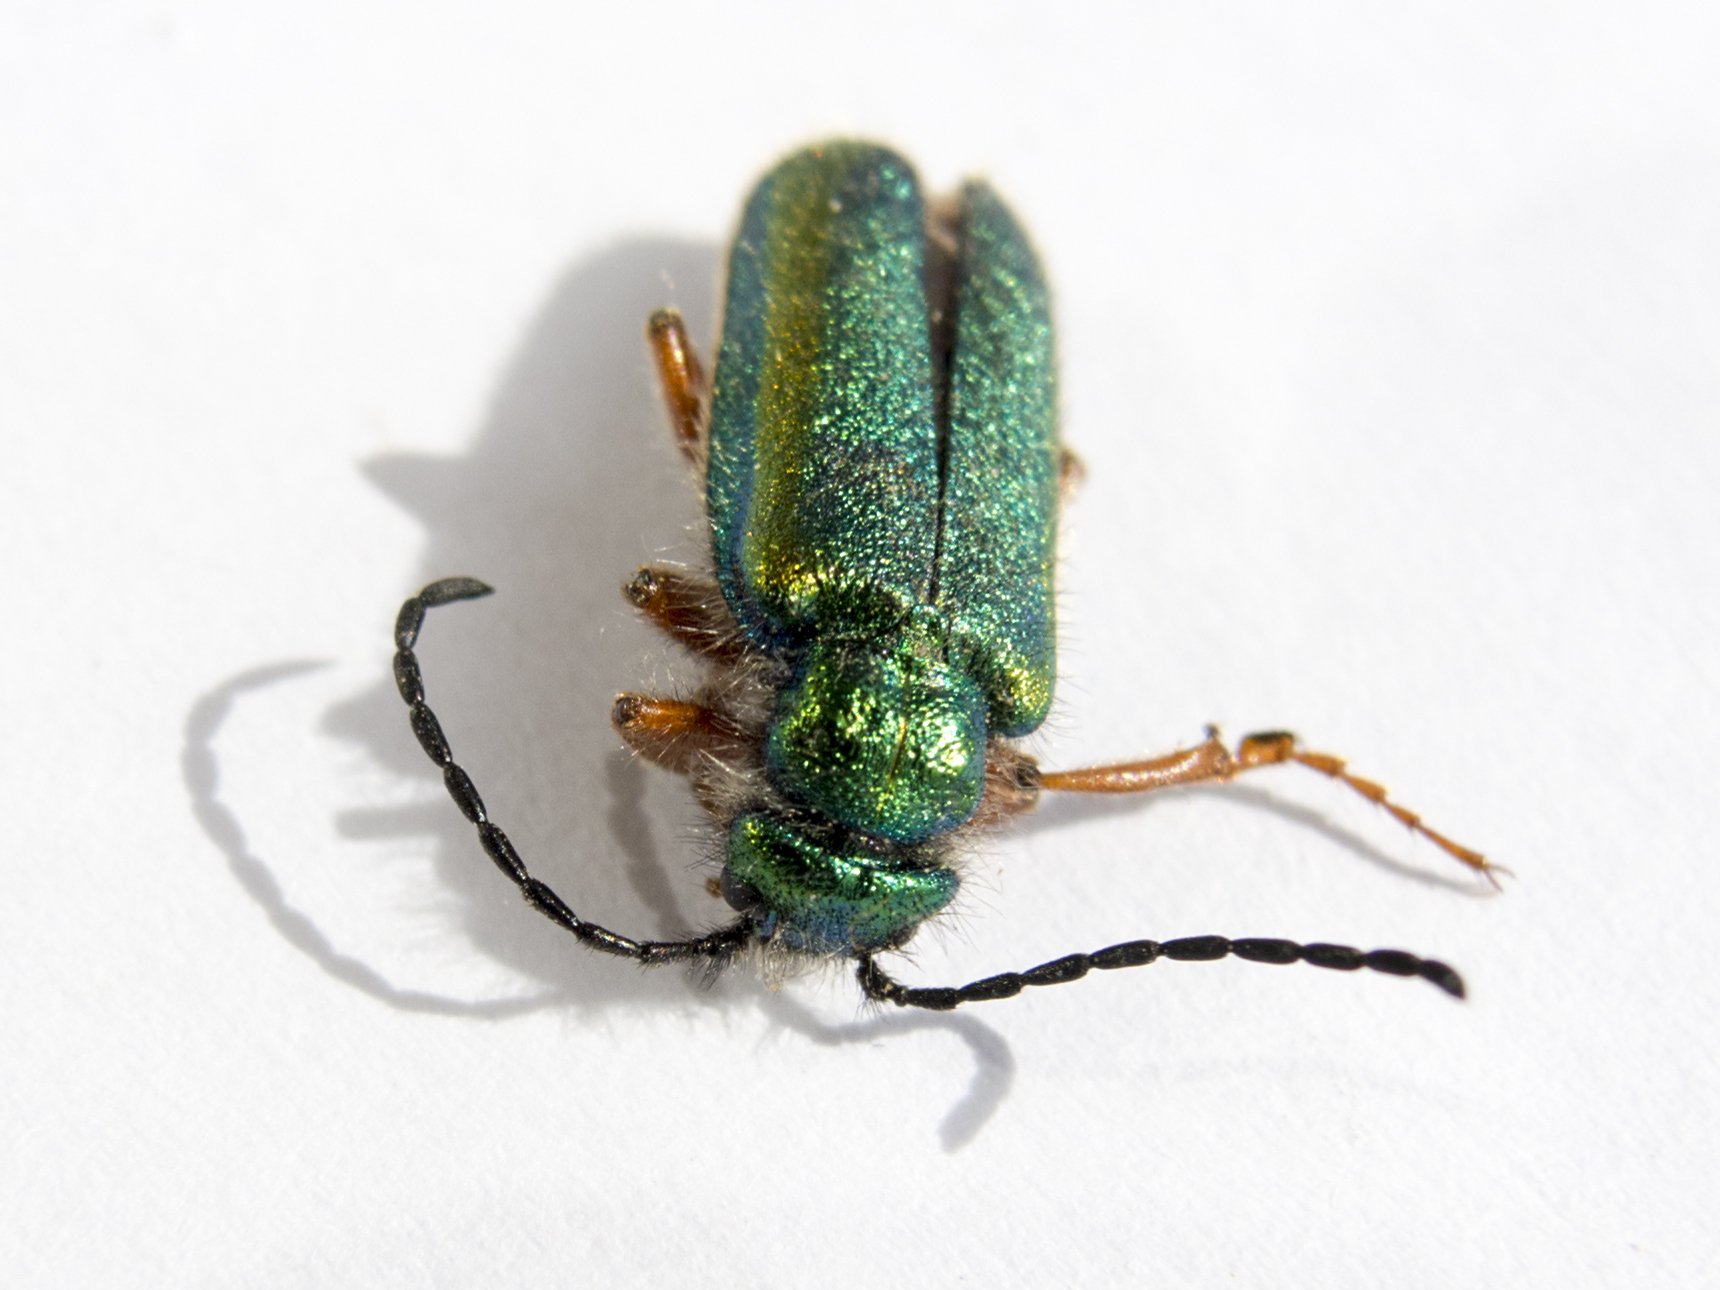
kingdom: Animalia
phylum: Arthropoda
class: Insecta
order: Coleoptera
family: Meloidae
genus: Teratolytta
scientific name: Teratolytta dives
